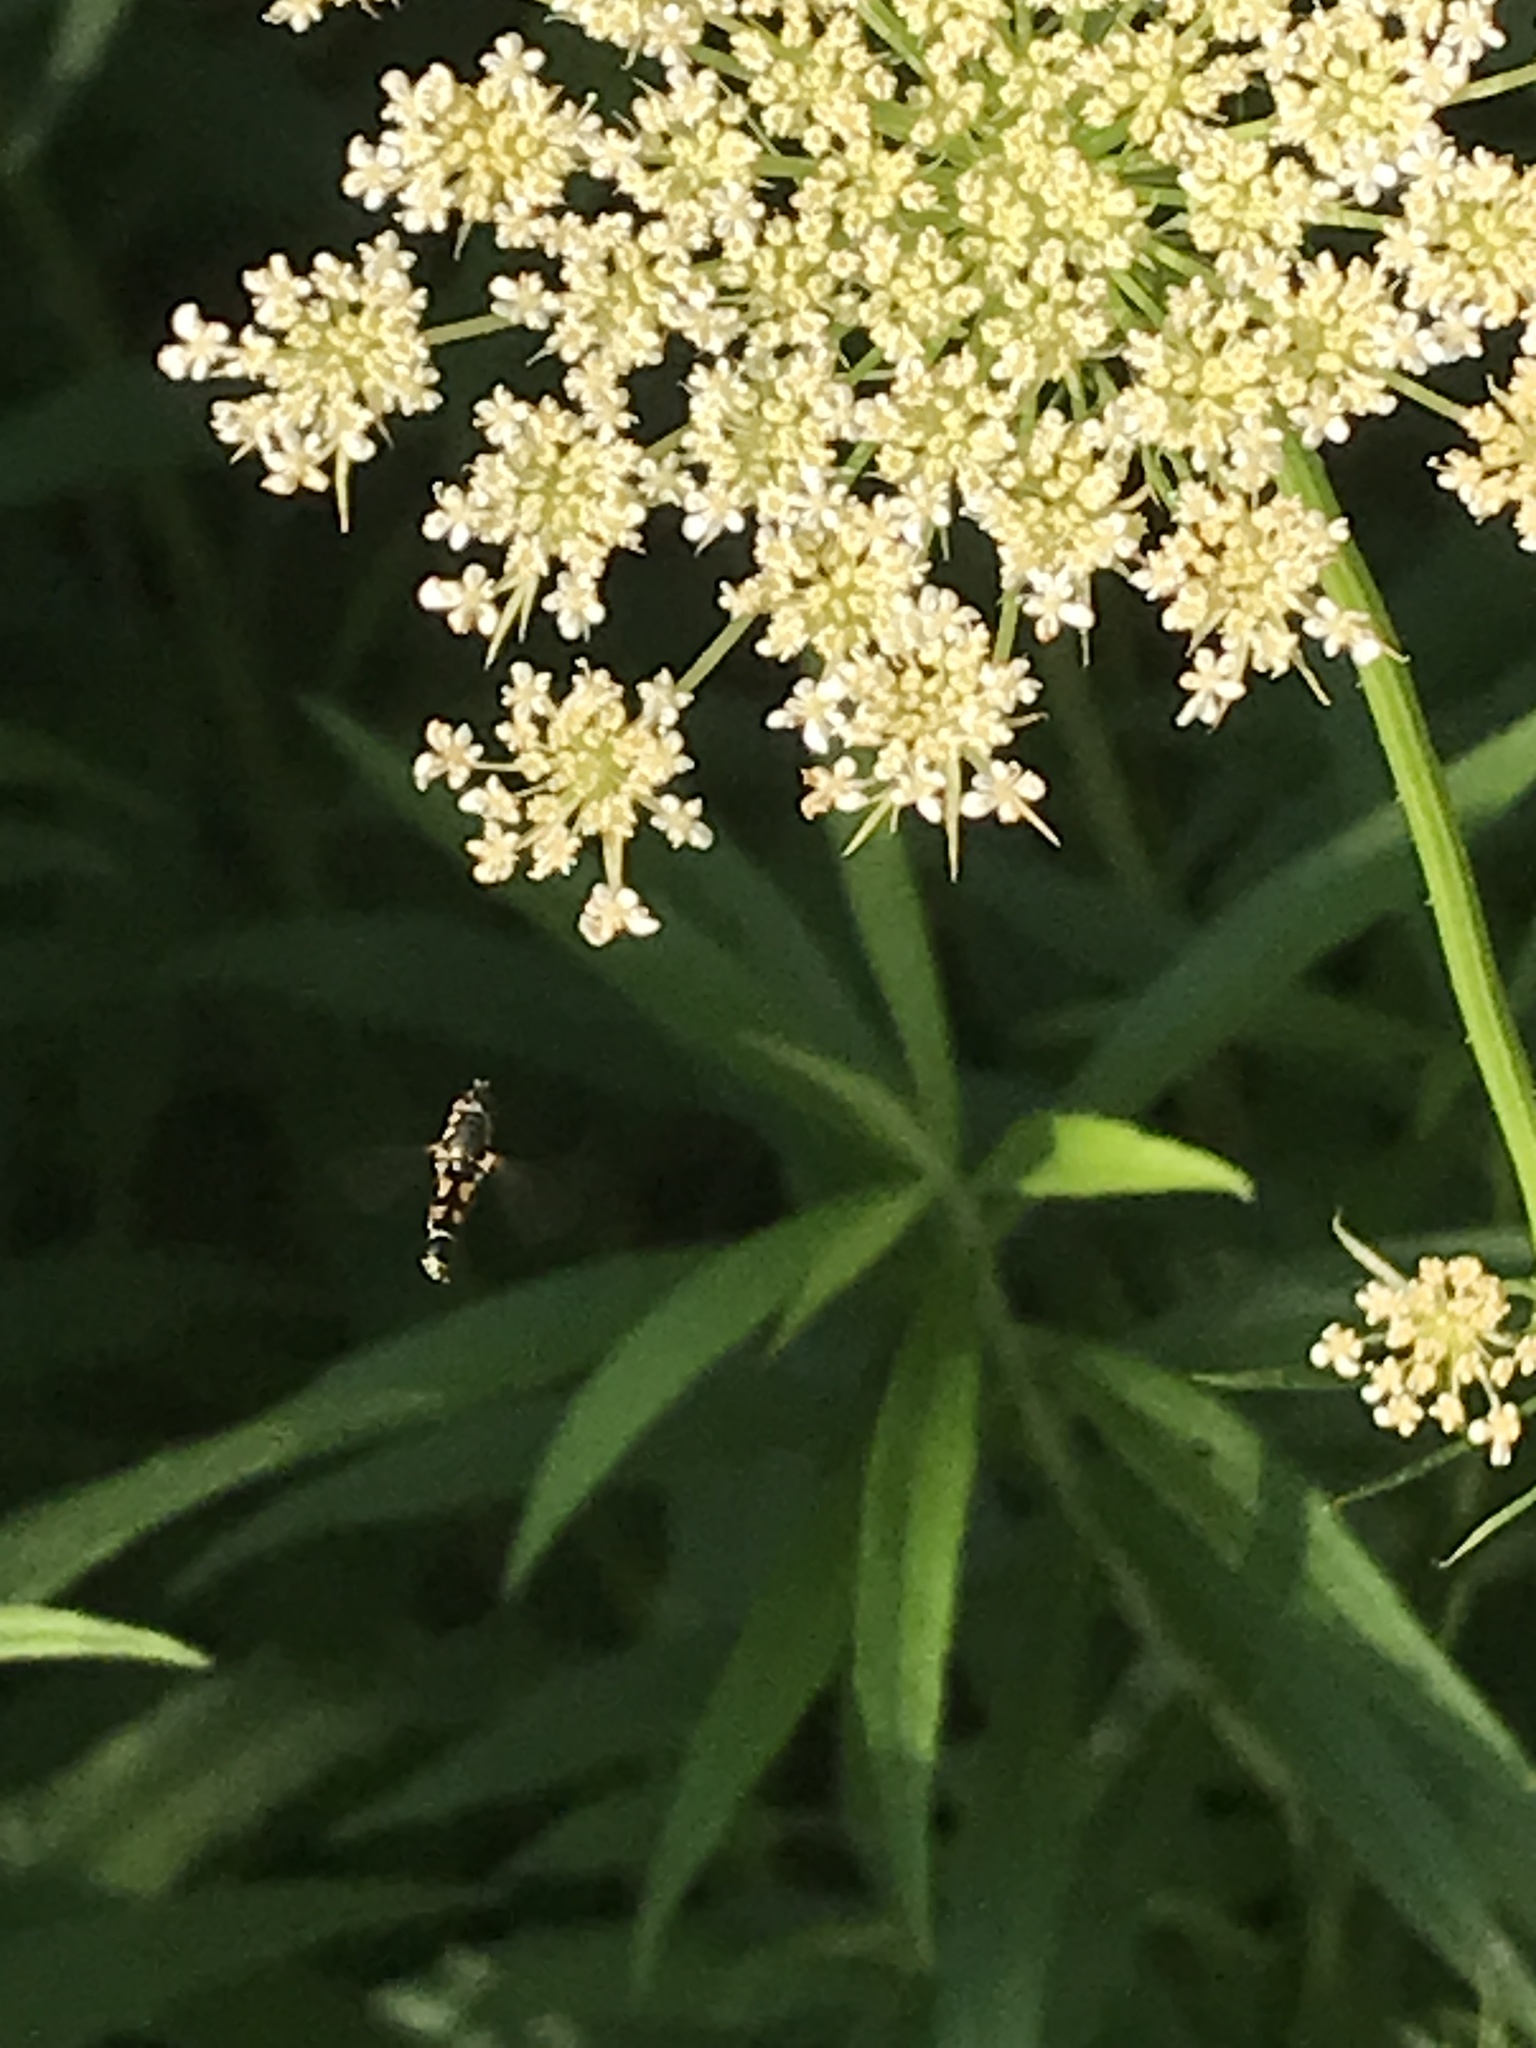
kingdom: Animalia
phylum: Arthropoda
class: Insecta
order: Diptera
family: Syrphidae
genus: Syritta
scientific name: Syritta pipiens
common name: Hover fly
